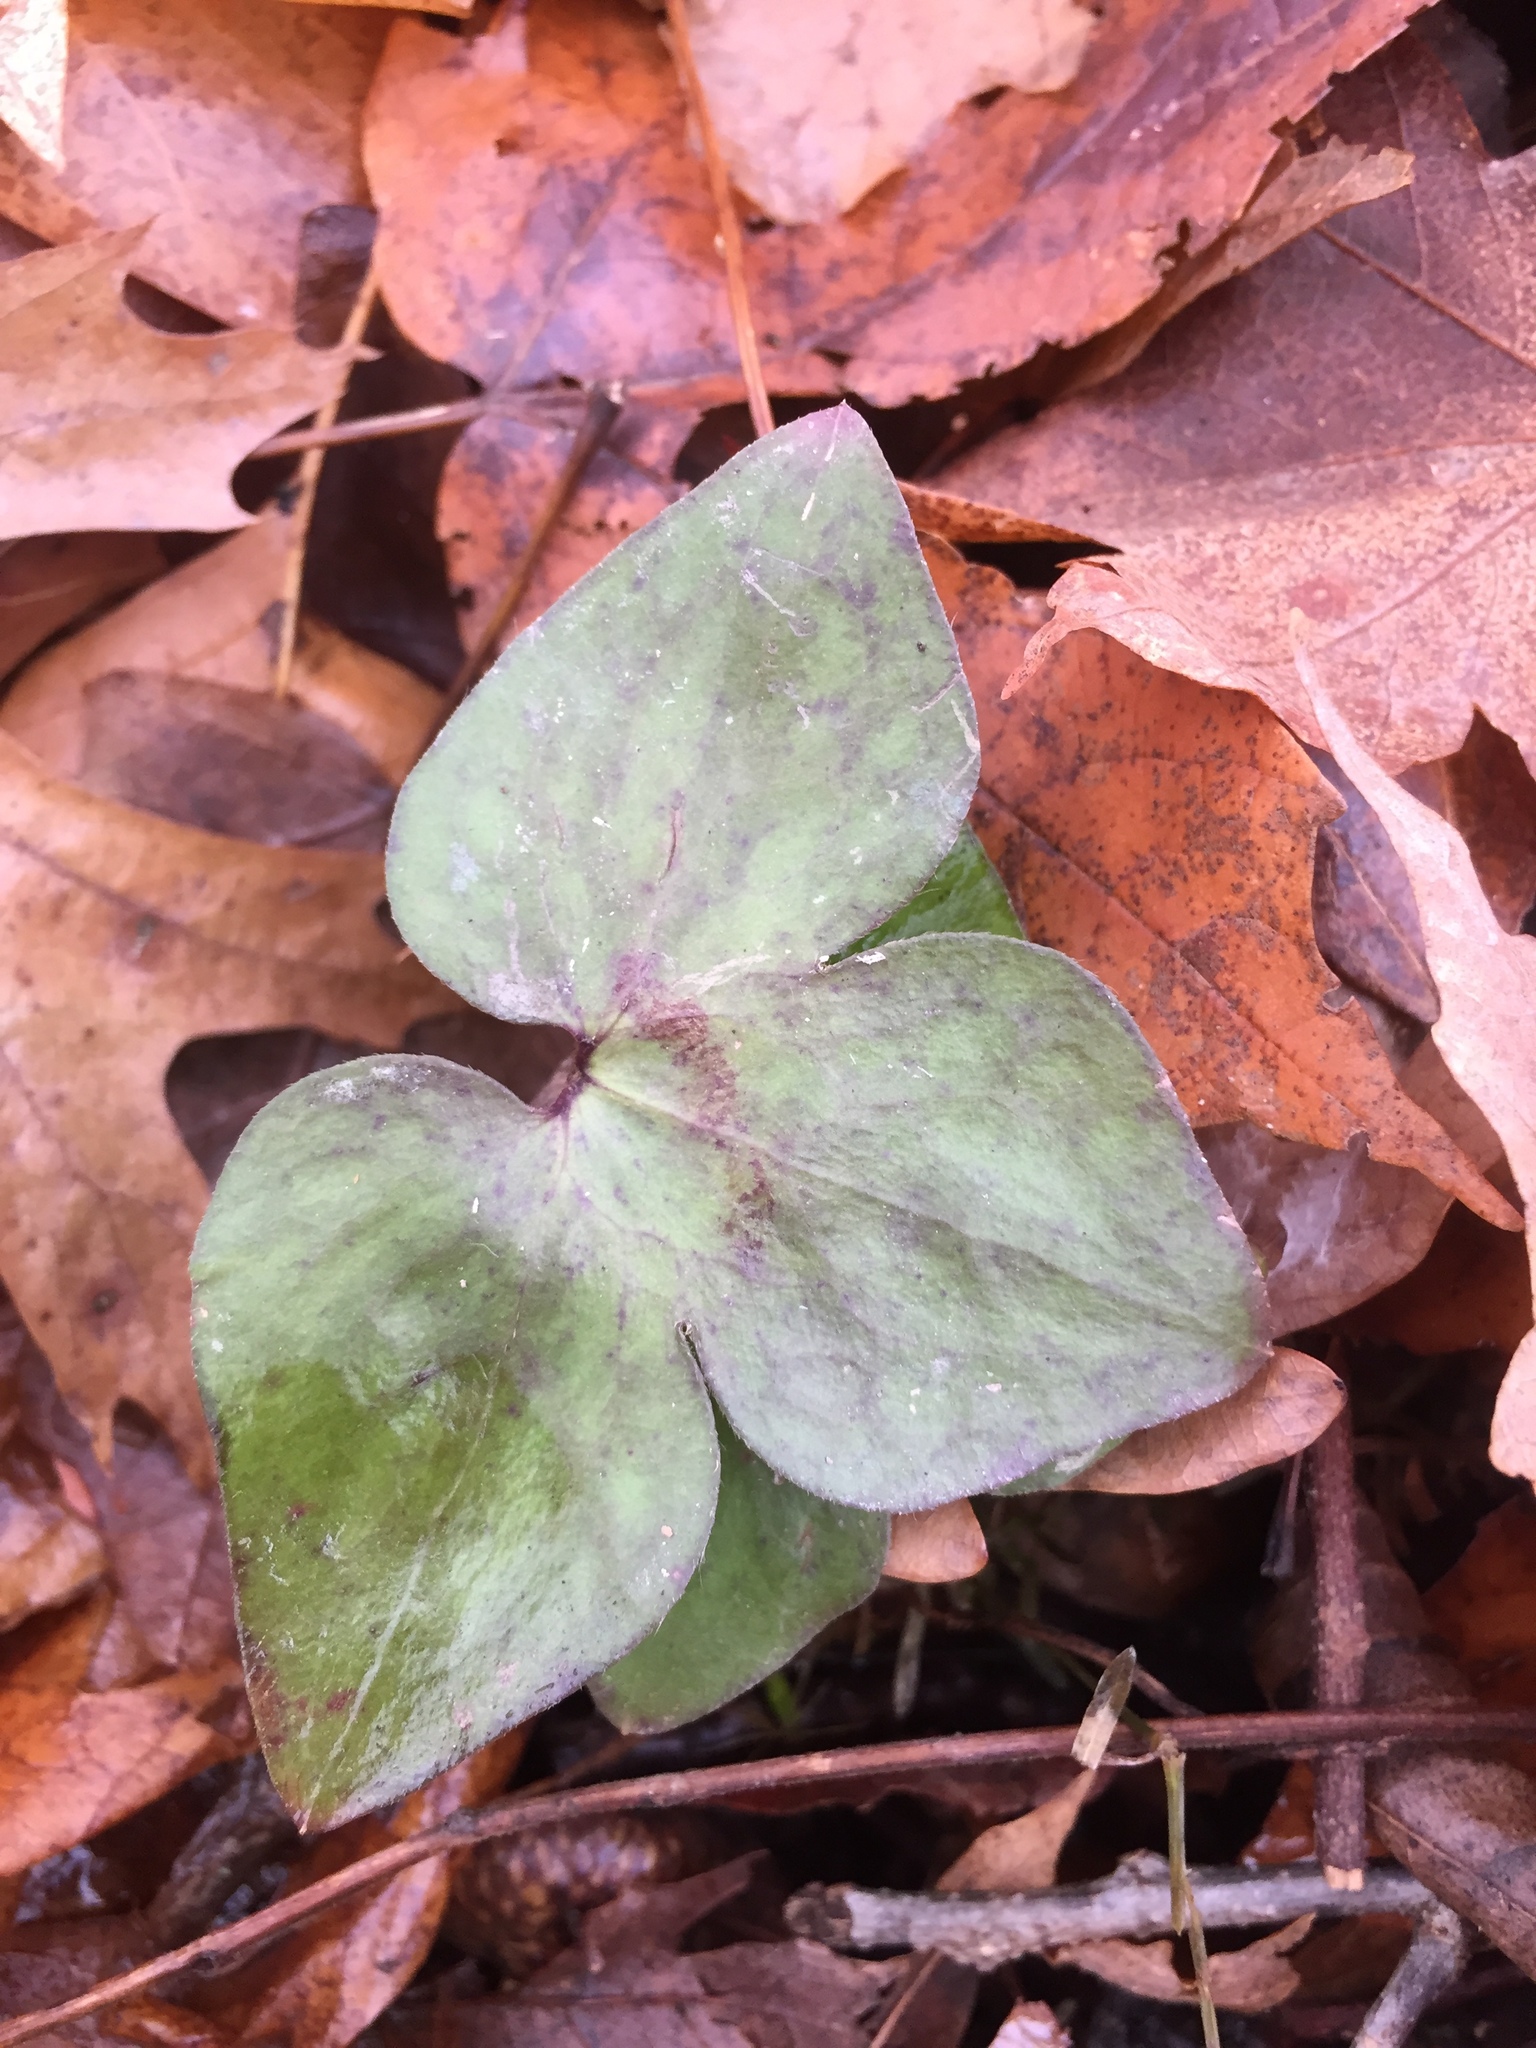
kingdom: Plantae
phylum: Tracheophyta
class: Magnoliopsida
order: Ranunculales
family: Ranunculaceae
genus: Hepatica
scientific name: Hepatica acutiloba
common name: Sharp-lobed hepatica
